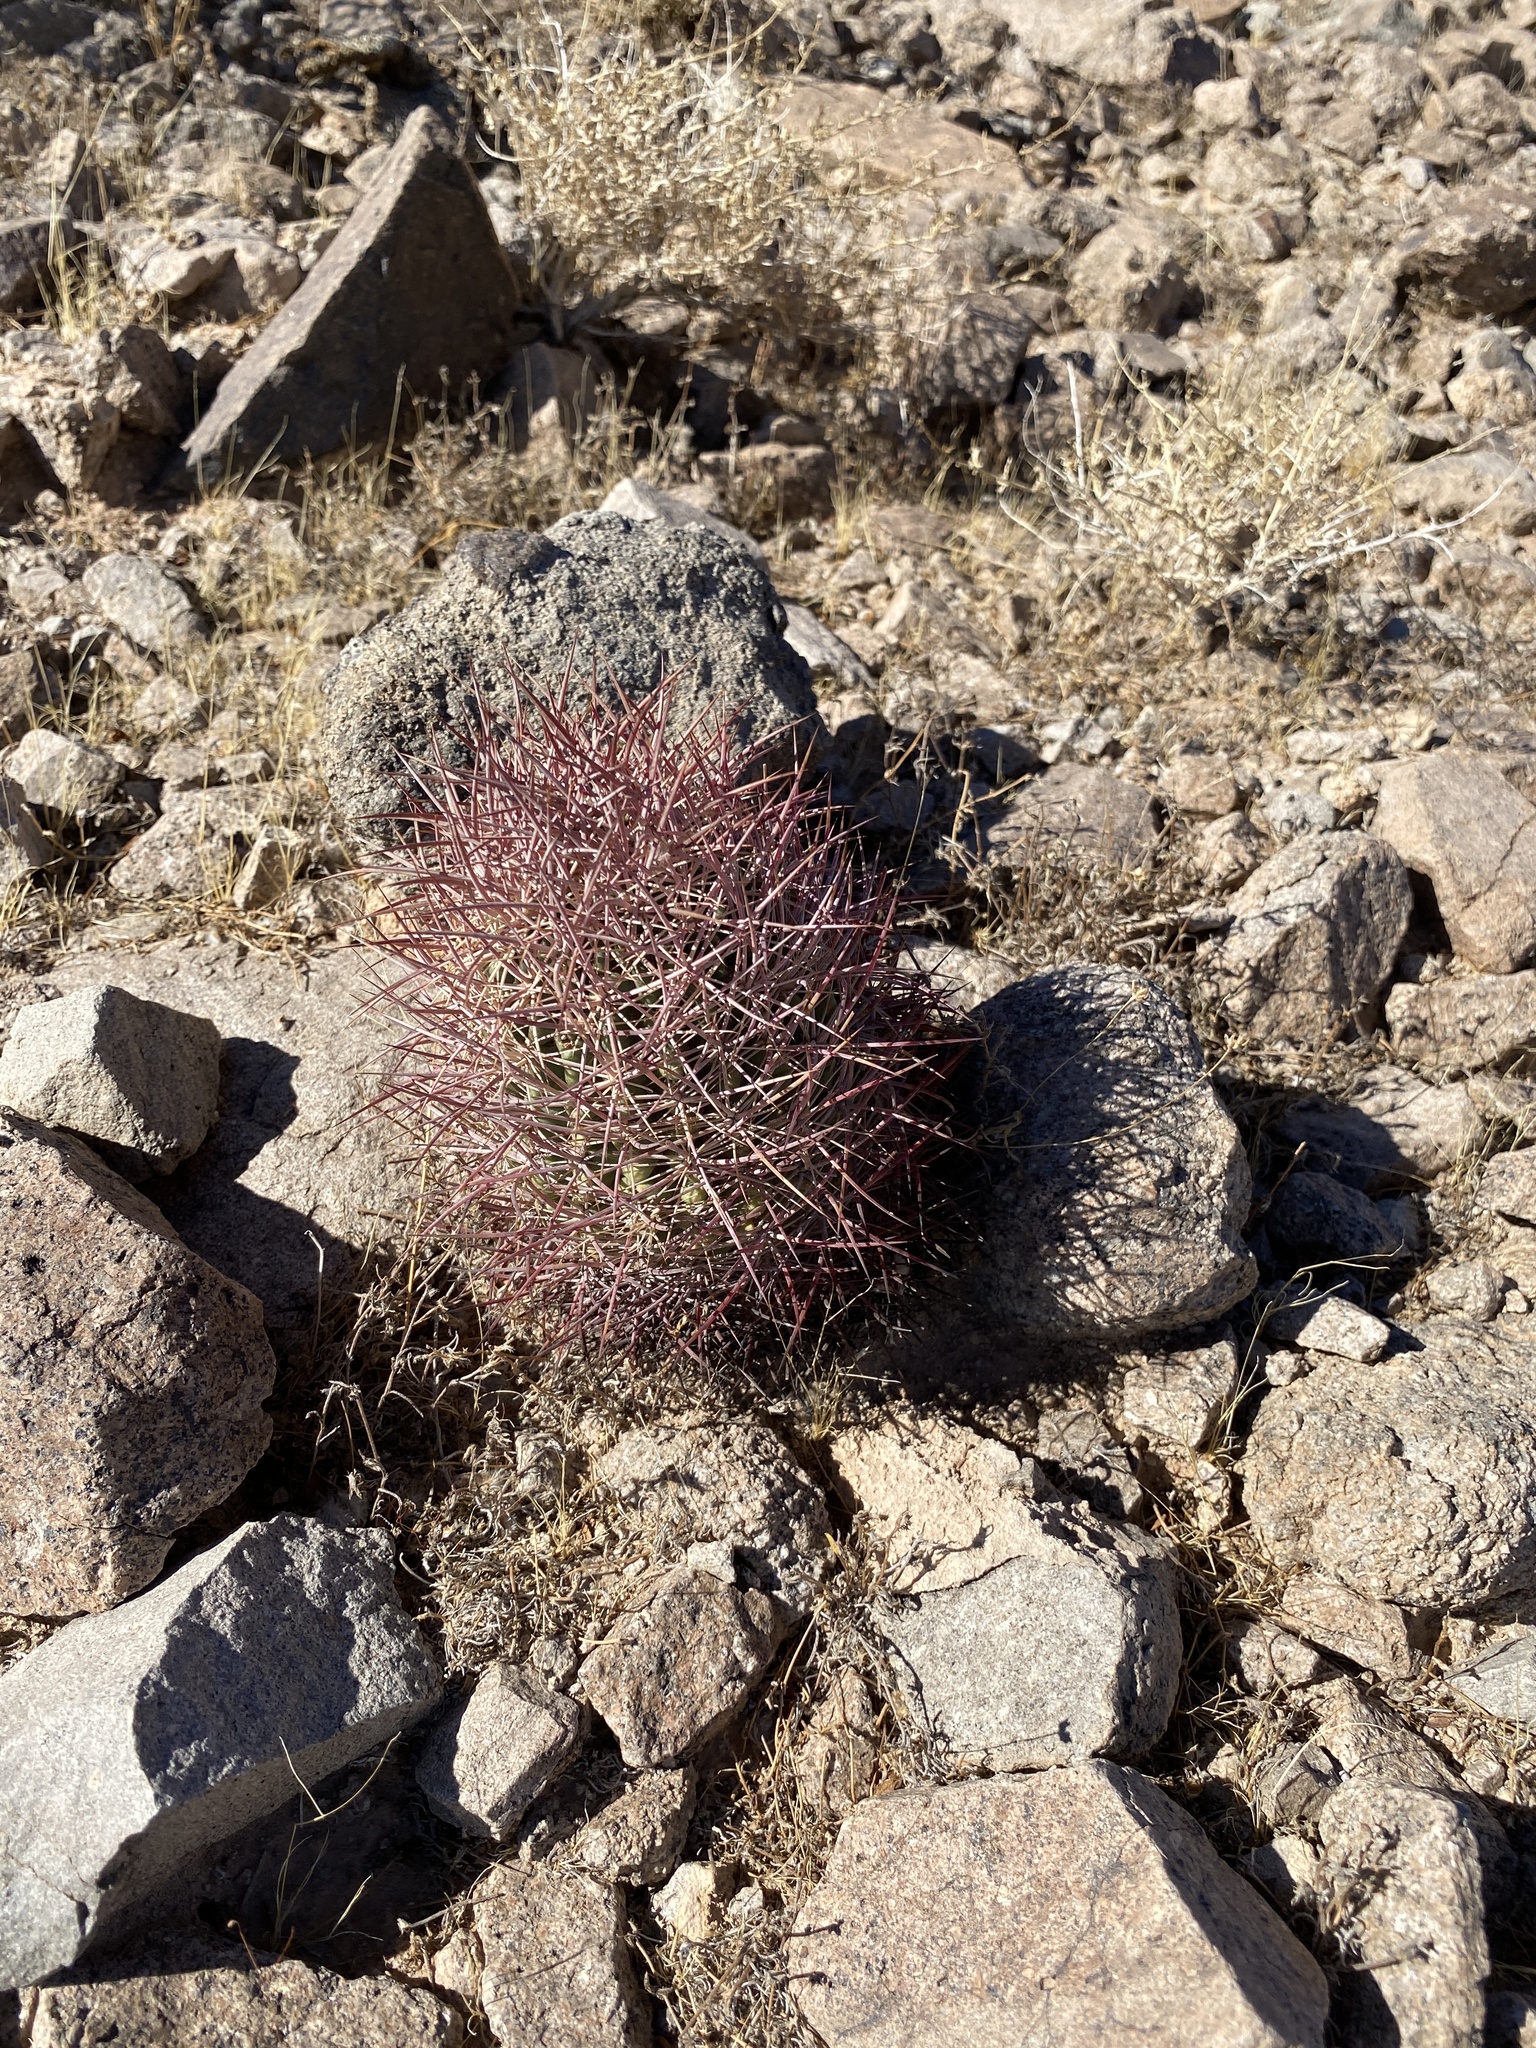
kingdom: Plantae
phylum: Tracheophyta
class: Magnoliopsida
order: Caryophyllales
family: Cactaceae
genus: Sclerocactus
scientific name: Sclerocactus johnsonii
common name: Eight-spine fishhook cactus
